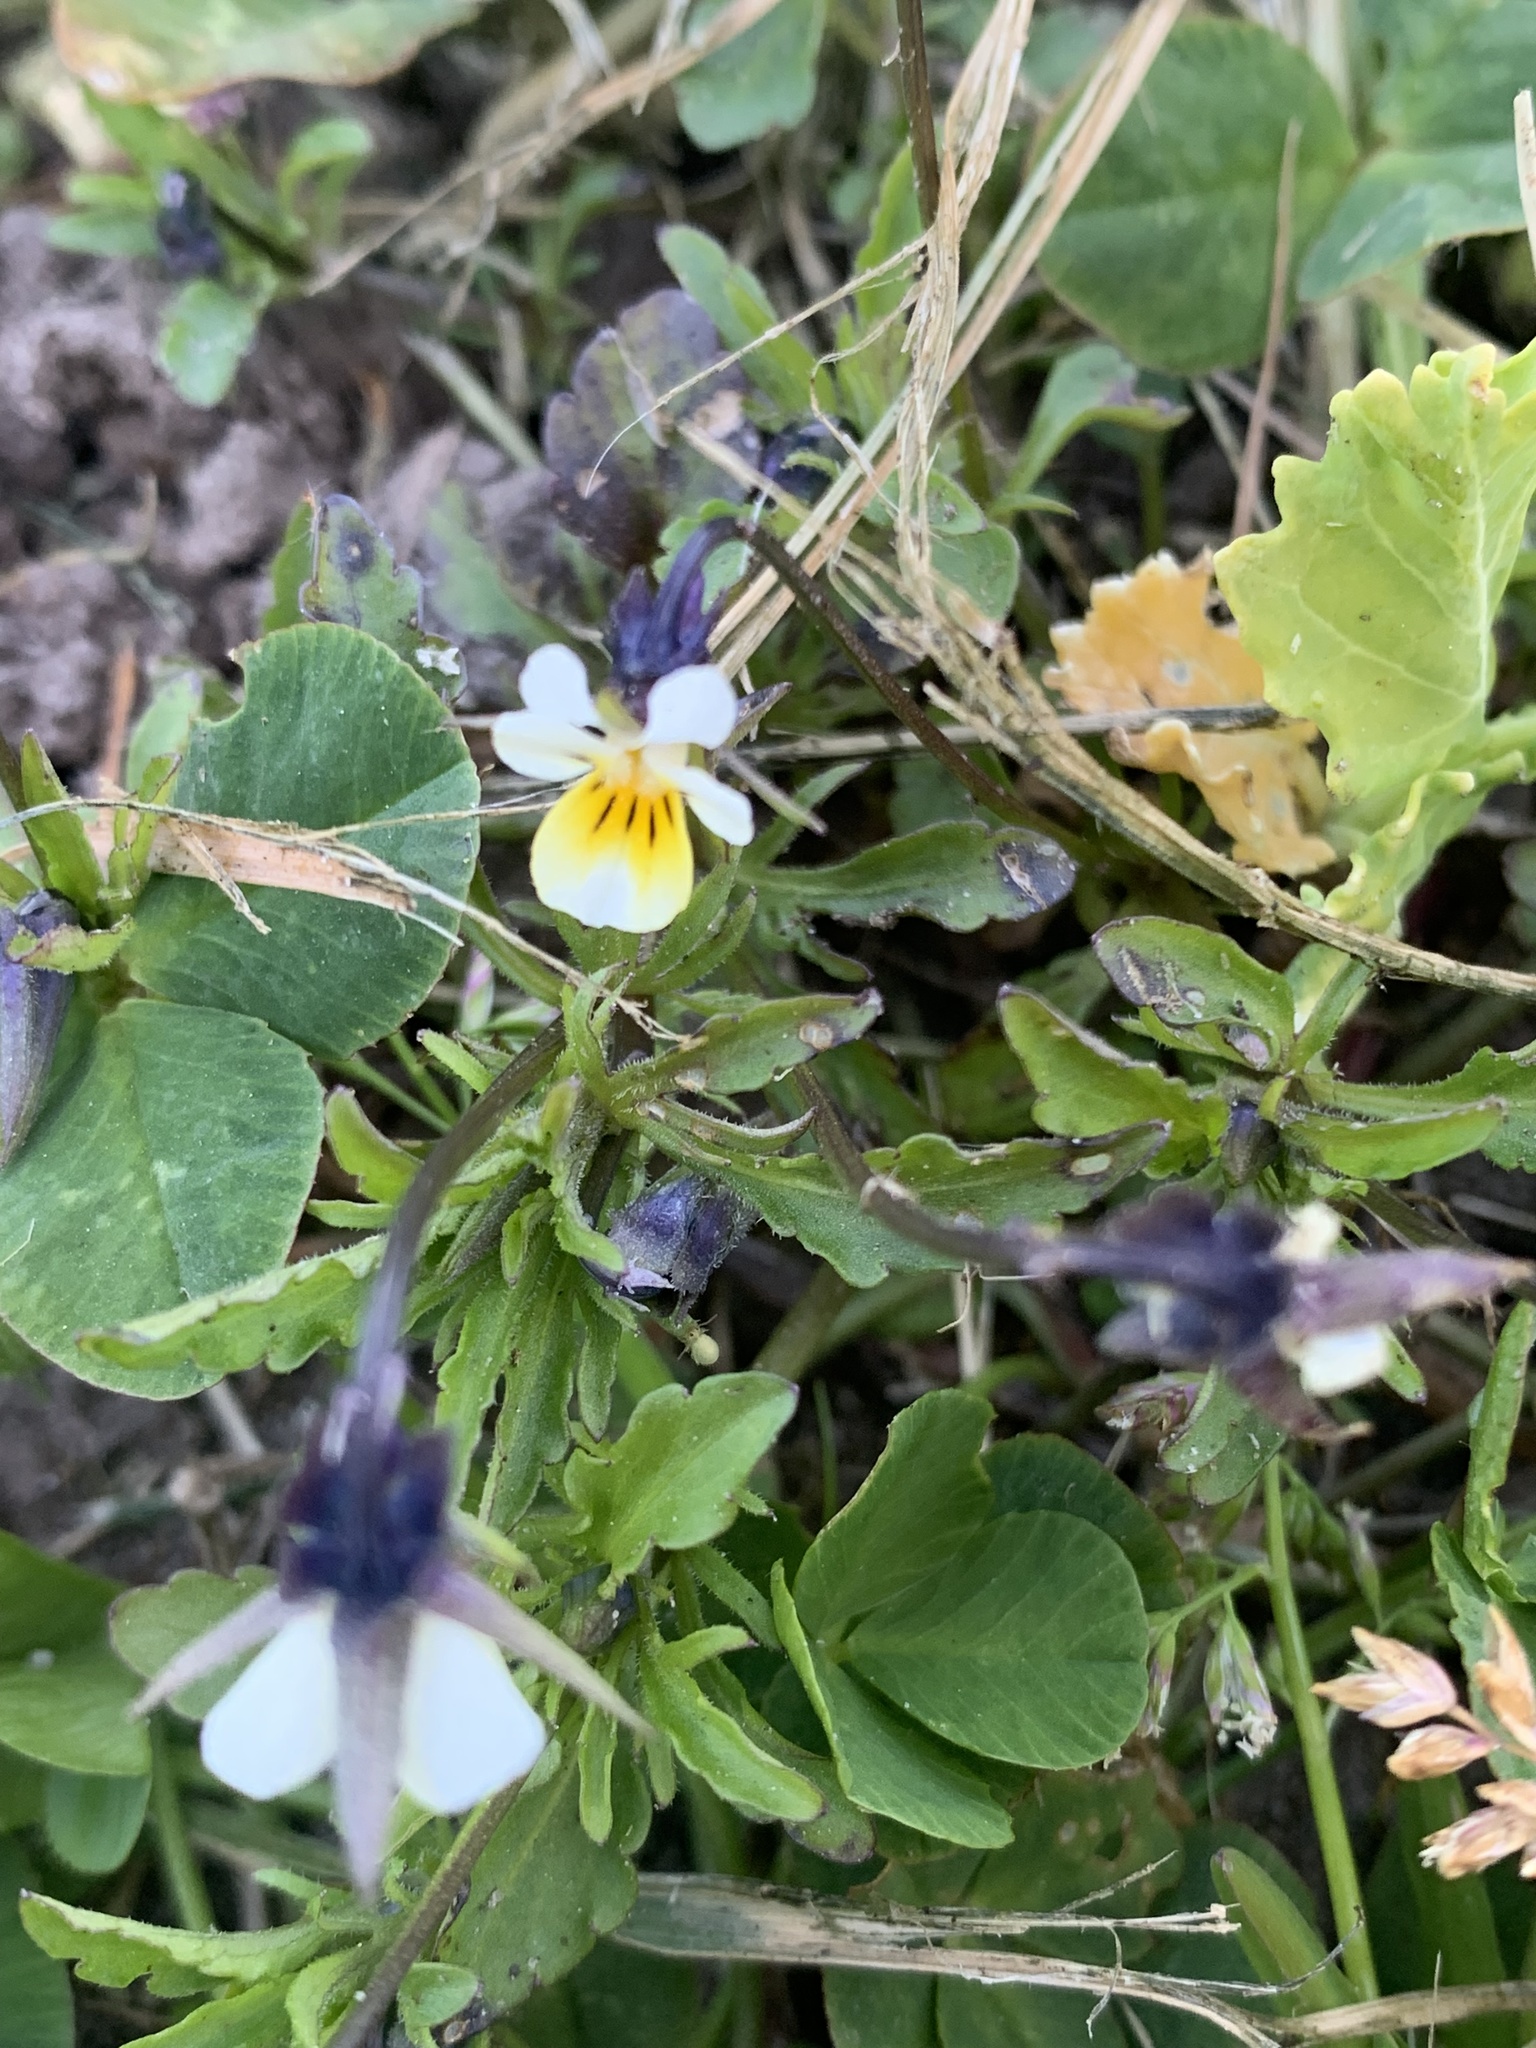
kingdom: Plantae
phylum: Tracheophyta
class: Magnoliopsida
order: Malpighiales
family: Violaceae
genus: Viola
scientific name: Viola arvensis
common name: Field pansy
